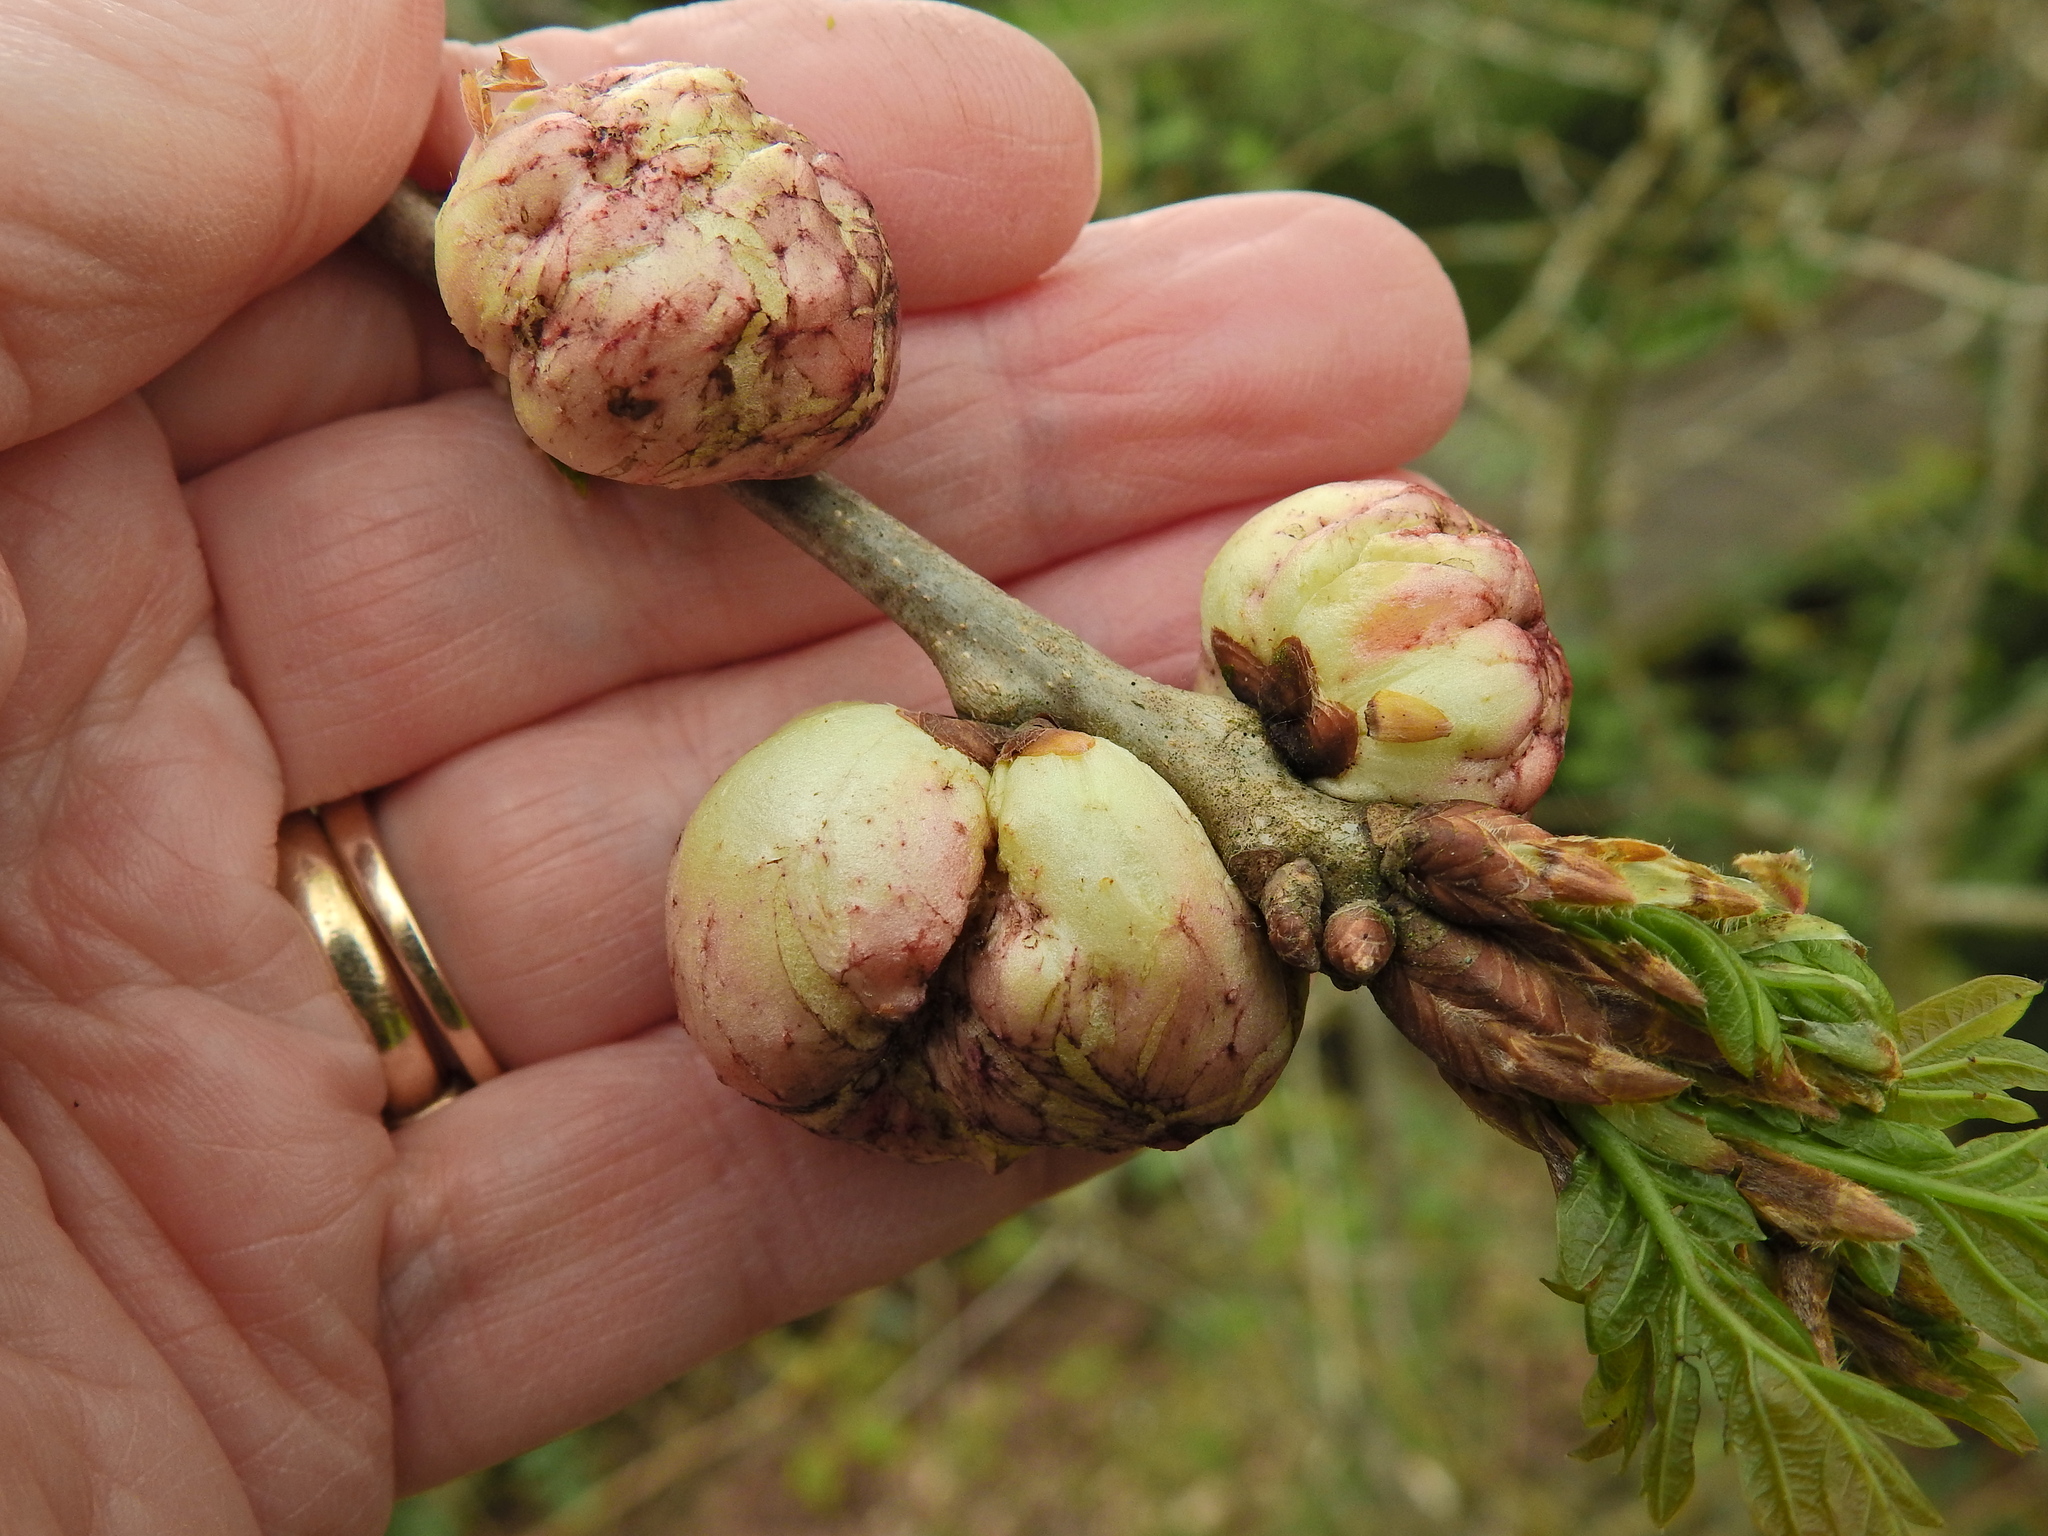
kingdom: Animalia
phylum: Arthropoda
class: Insecta
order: Hymenoptera
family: Cynipidae
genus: Biorhiza
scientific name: Biorhiza pallida
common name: Oak apple
